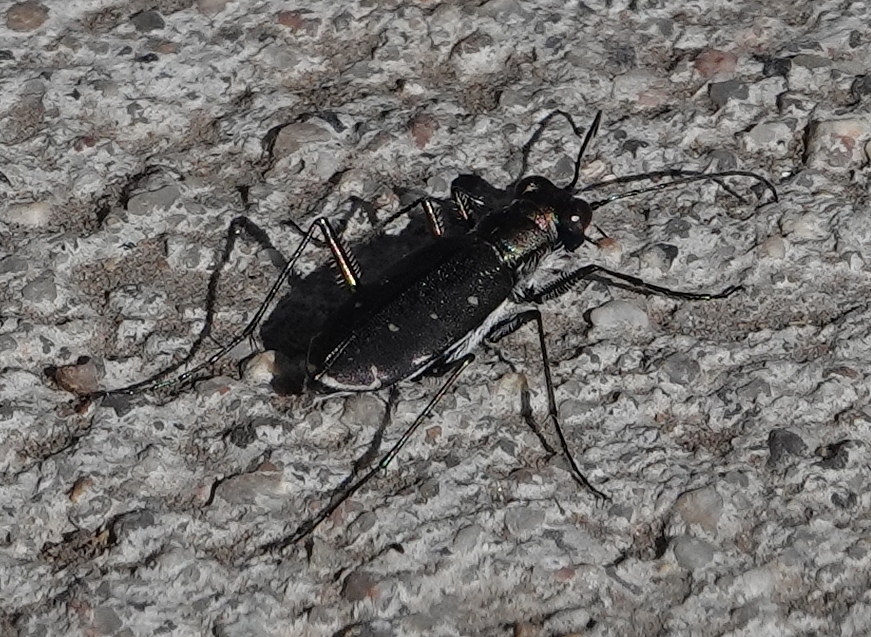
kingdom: Animalia
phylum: Arthropoda
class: Insecta
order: Coleoptera
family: Carabidae
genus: Cicindela
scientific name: Cicindela punctulata
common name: Punctured tiger beetle
